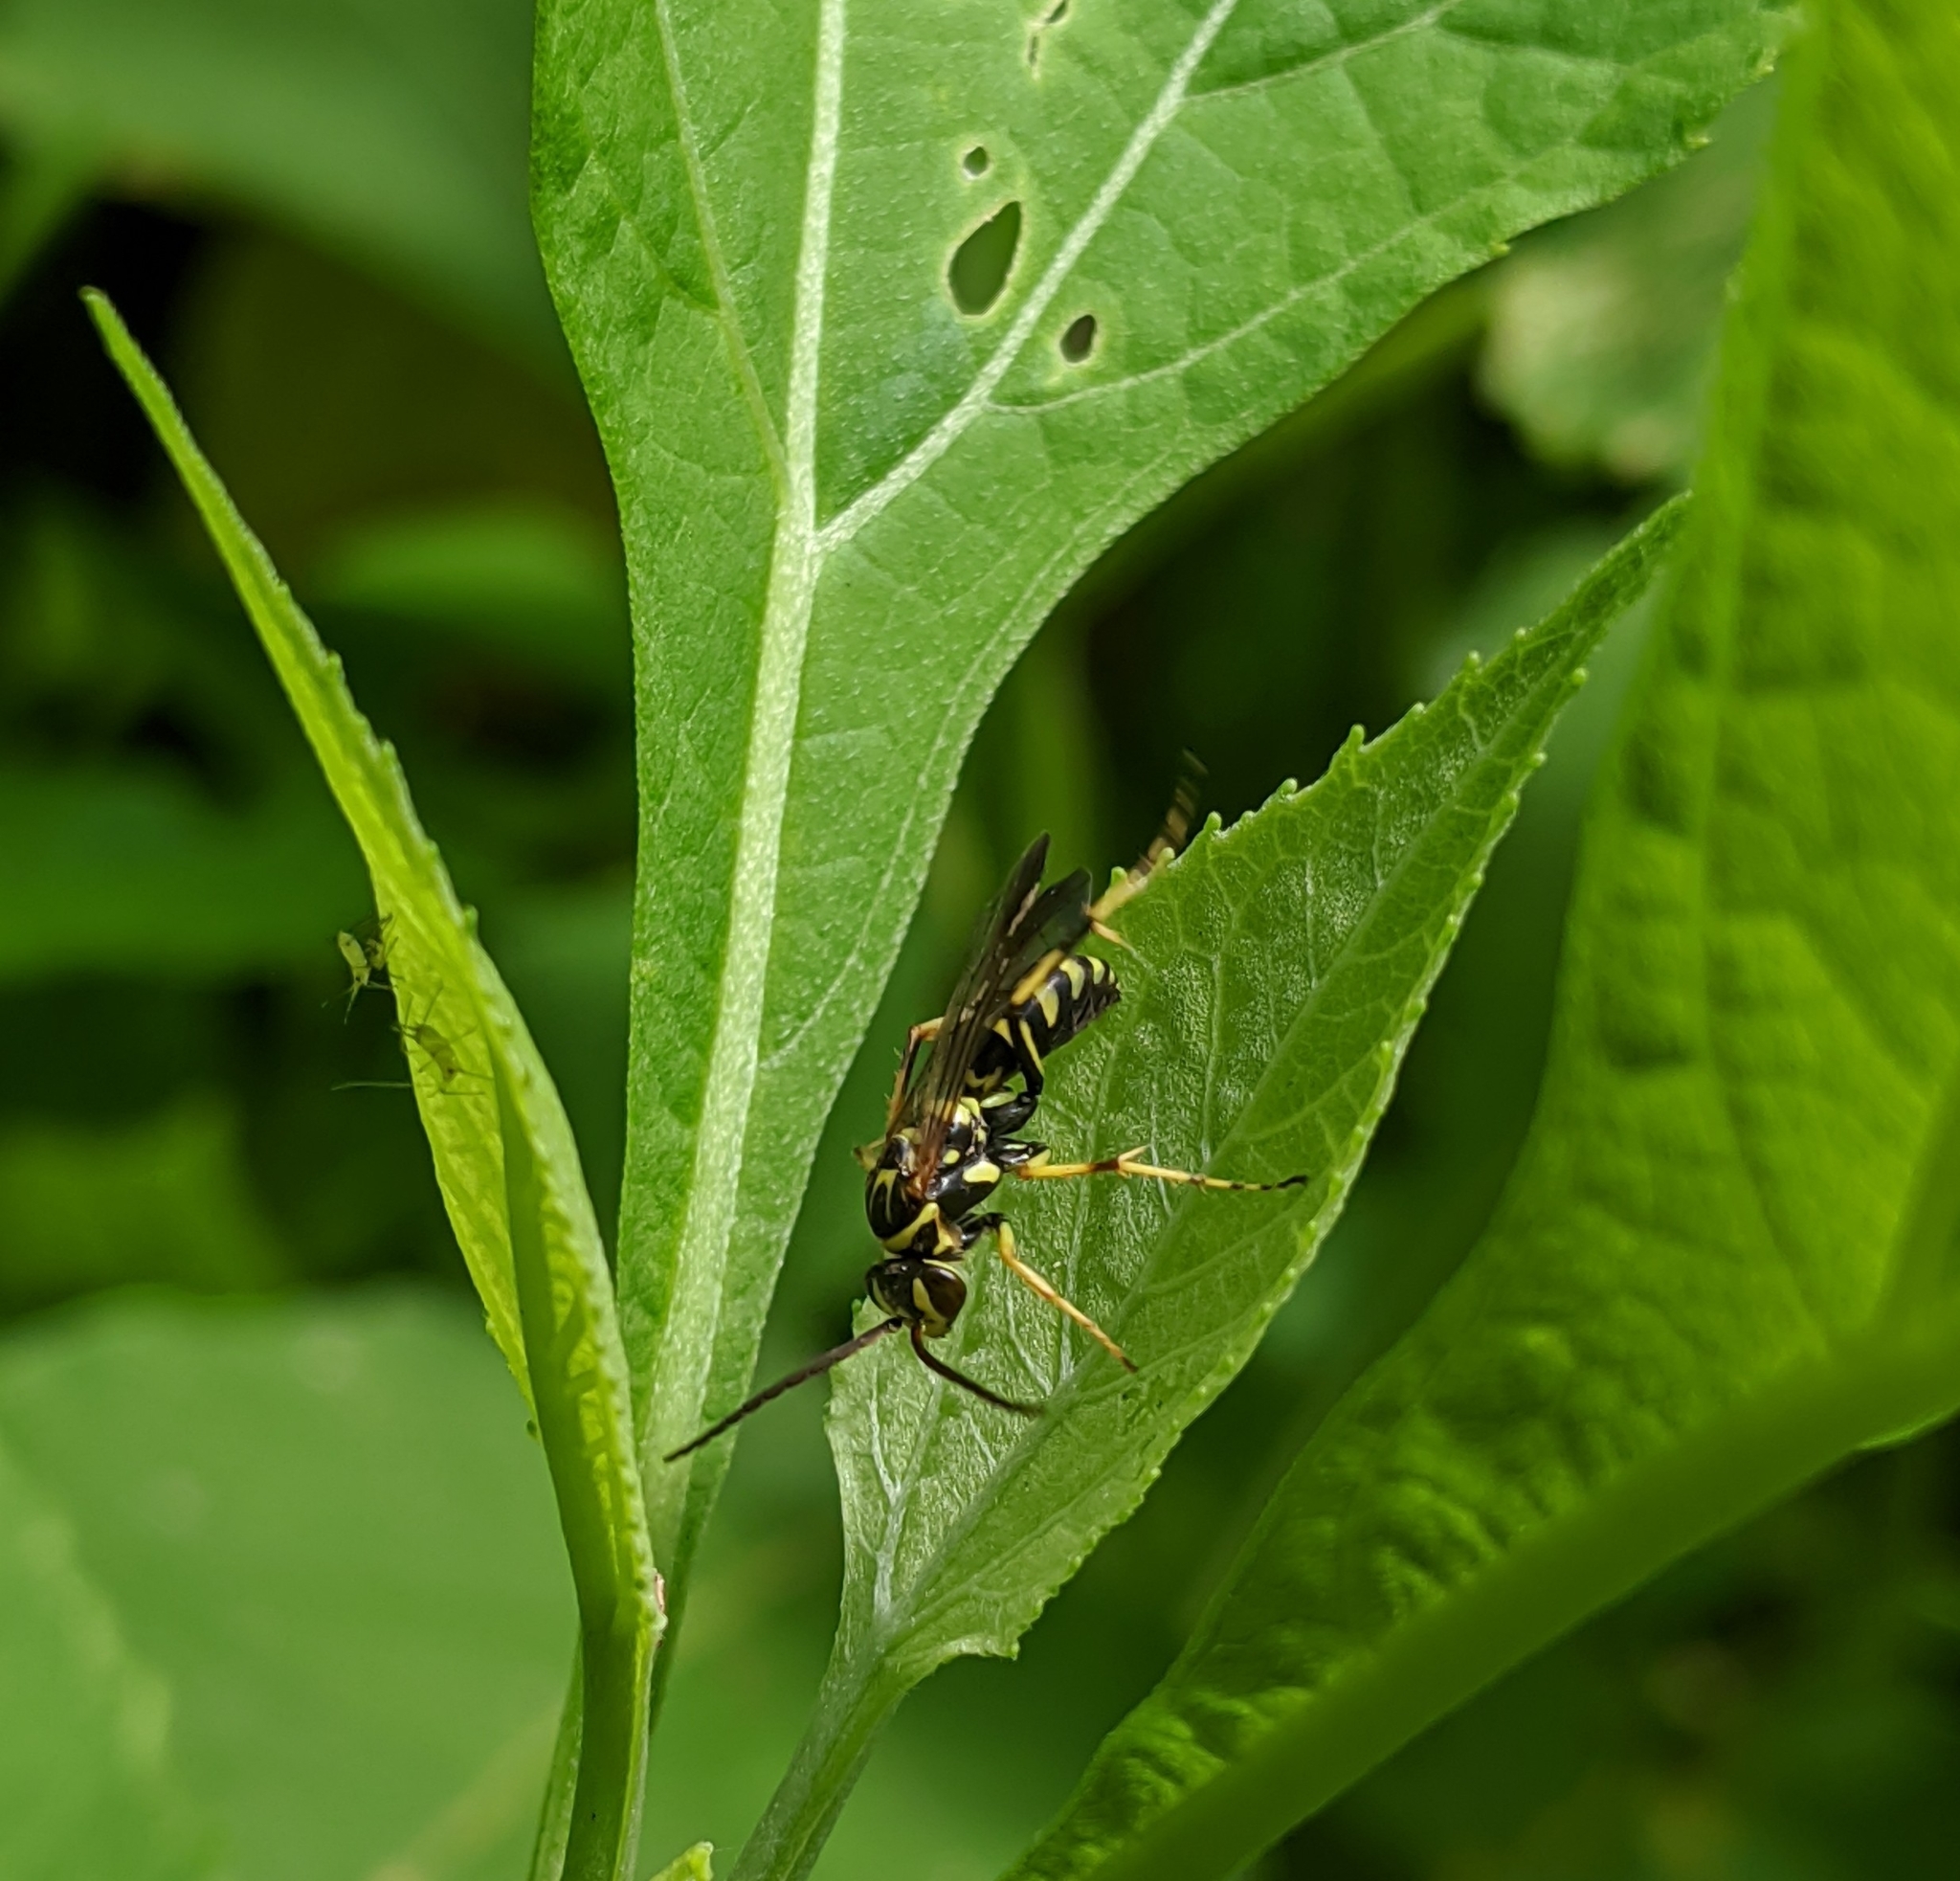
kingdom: Animalia
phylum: Arthropoda
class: Insecta
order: Hymenoptera
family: Pompilidae
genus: Poecilopompilus
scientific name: Poecilopompilus interruptus
